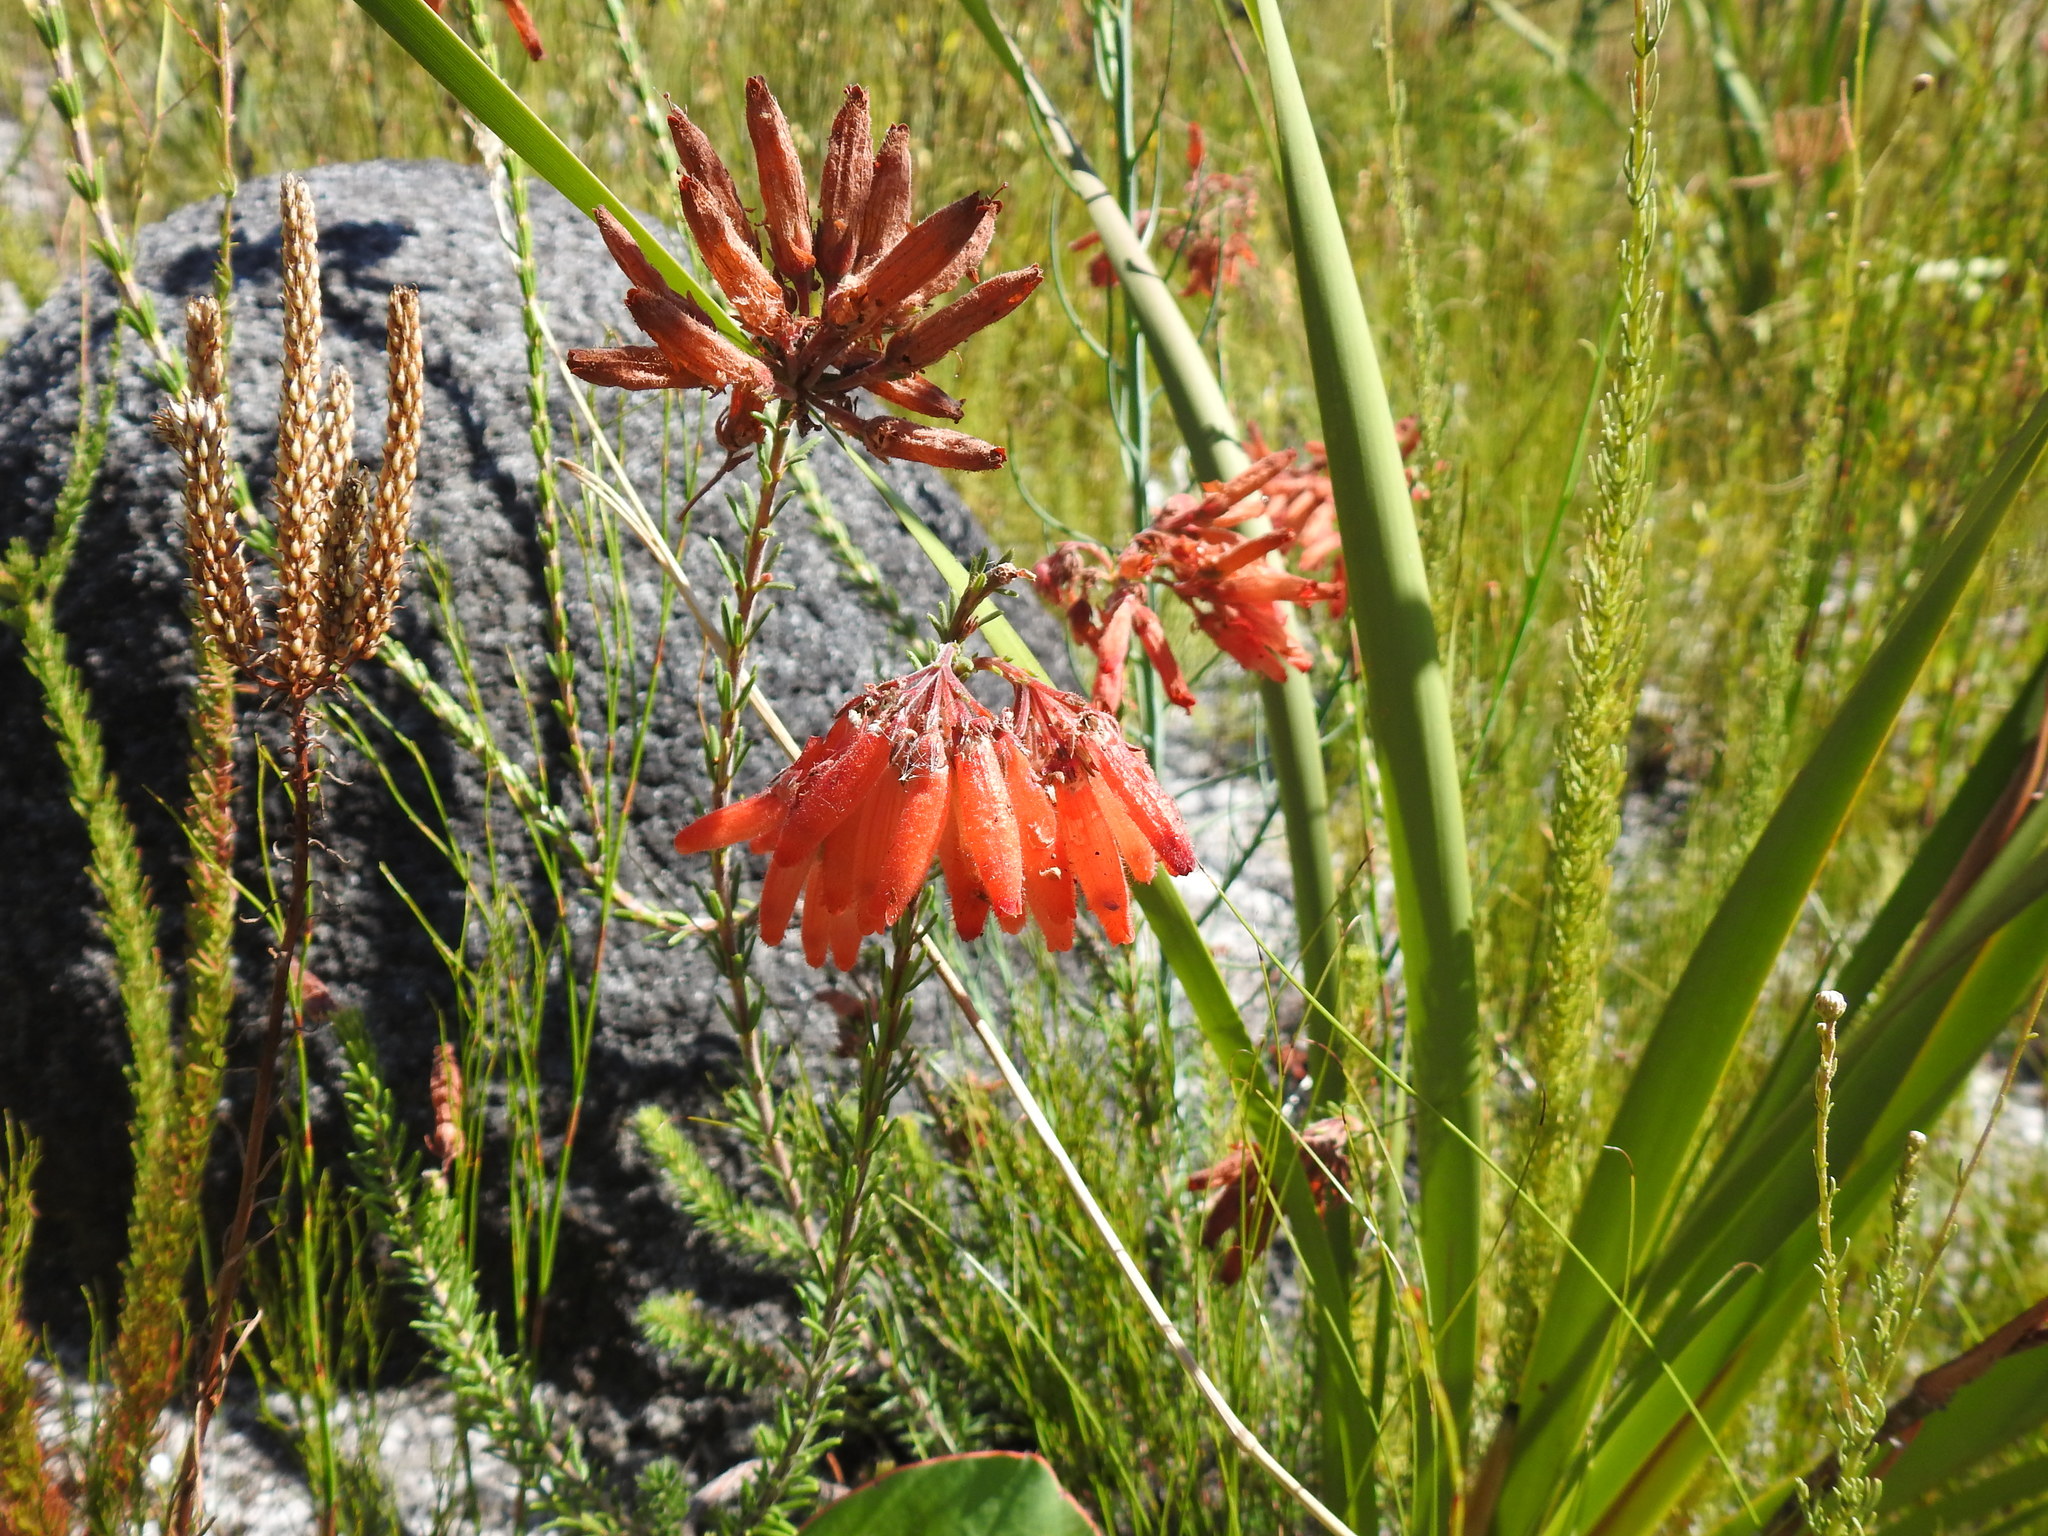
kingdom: Plantae
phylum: Tracheophyta
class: Magnoliopsida
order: Ericales
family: Ericaceae
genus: Erica
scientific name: Erica cerinthoides
